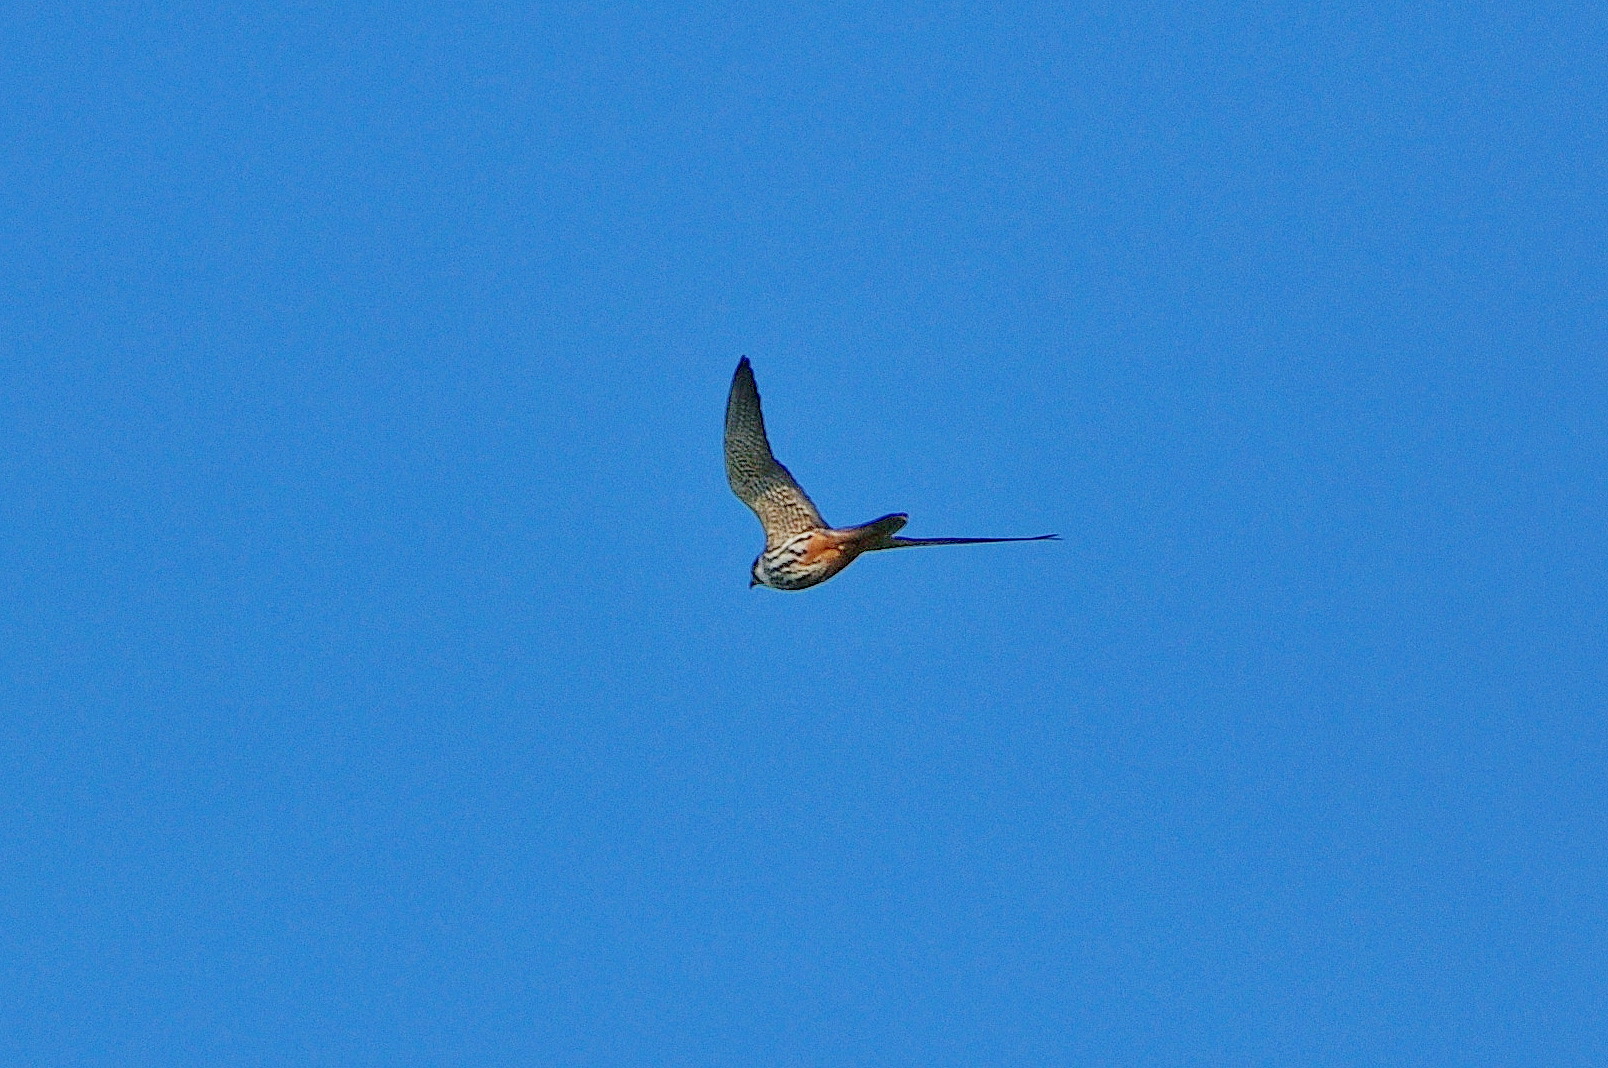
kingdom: Animalia
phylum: Chordata
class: Aves
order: Falconiformes
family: Falconidae
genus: Falco
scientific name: Falco subbuteo
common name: Eurasian hobby
